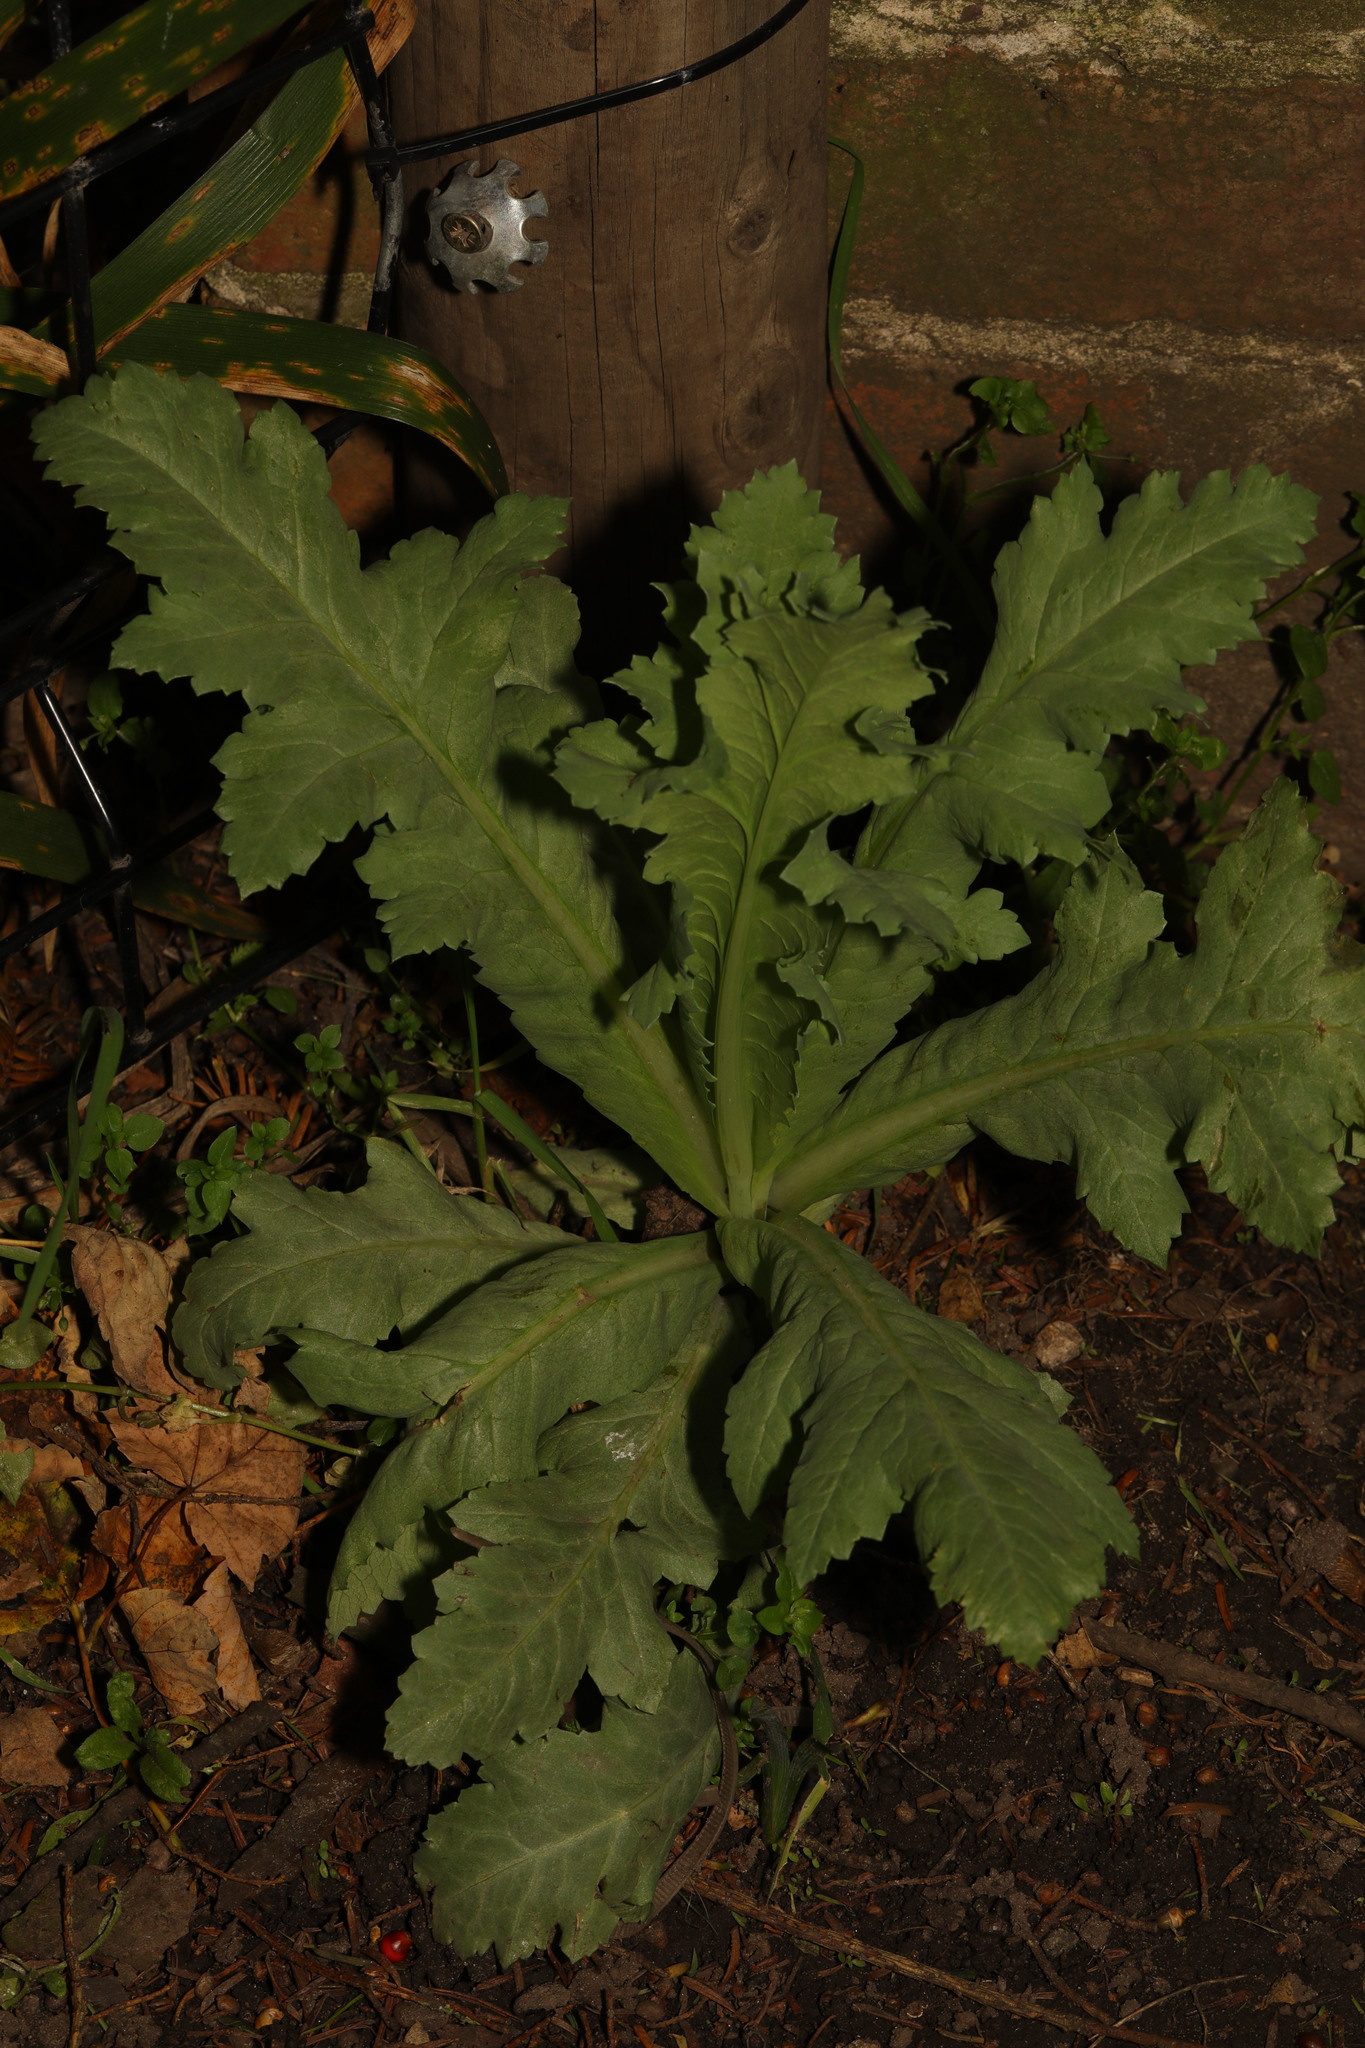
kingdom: Plantae
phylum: Tracheophyta
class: Magnoliopsida
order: Ranunculales
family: Papaveraceae
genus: Papaver
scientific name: Papaver somniferum
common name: Opium poppy
